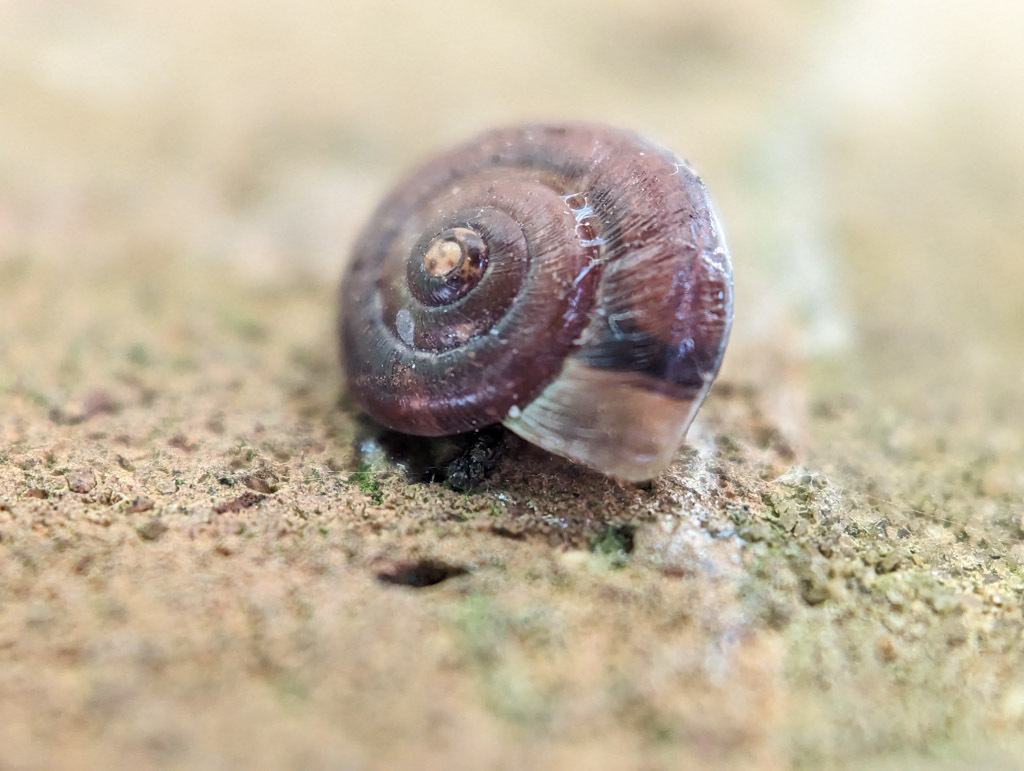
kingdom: Animalia
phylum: Mollusca
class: Gastropoda
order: Stylommatophora
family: Hygromiidae
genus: Hygromia
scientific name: Hygromia cinctella
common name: Girdled snail
